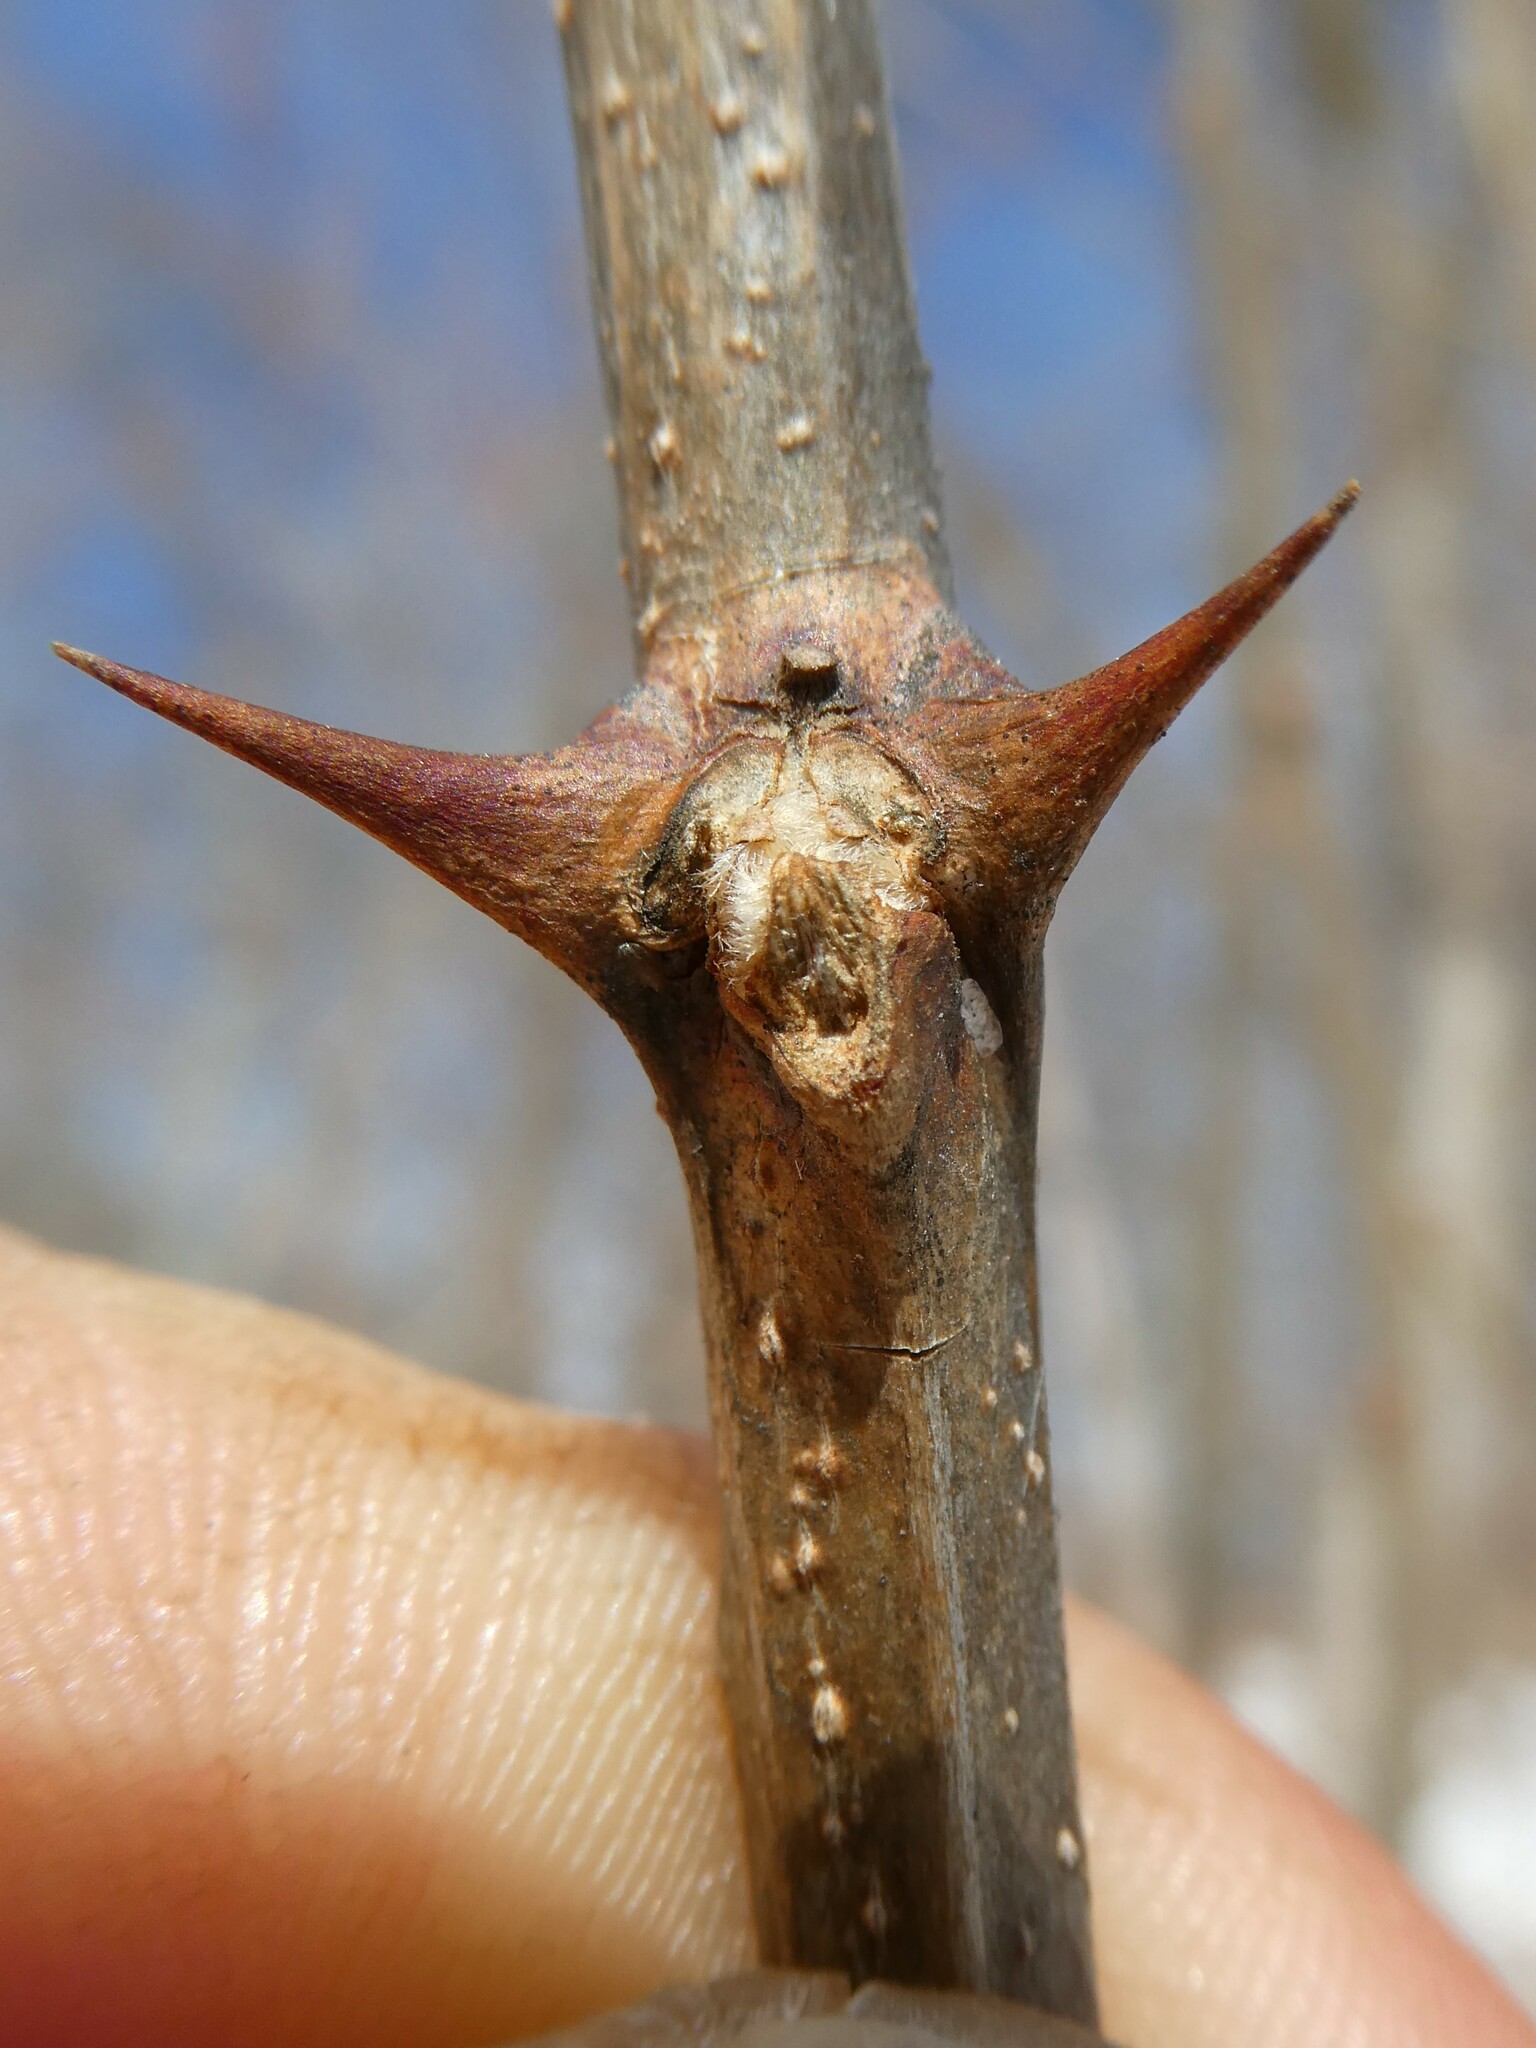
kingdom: Plantae
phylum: Tracheophyta
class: Magnoliopsida
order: Fabales
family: Fabaceae
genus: Robinia
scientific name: Robinia pseudoacacia
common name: Black locust
